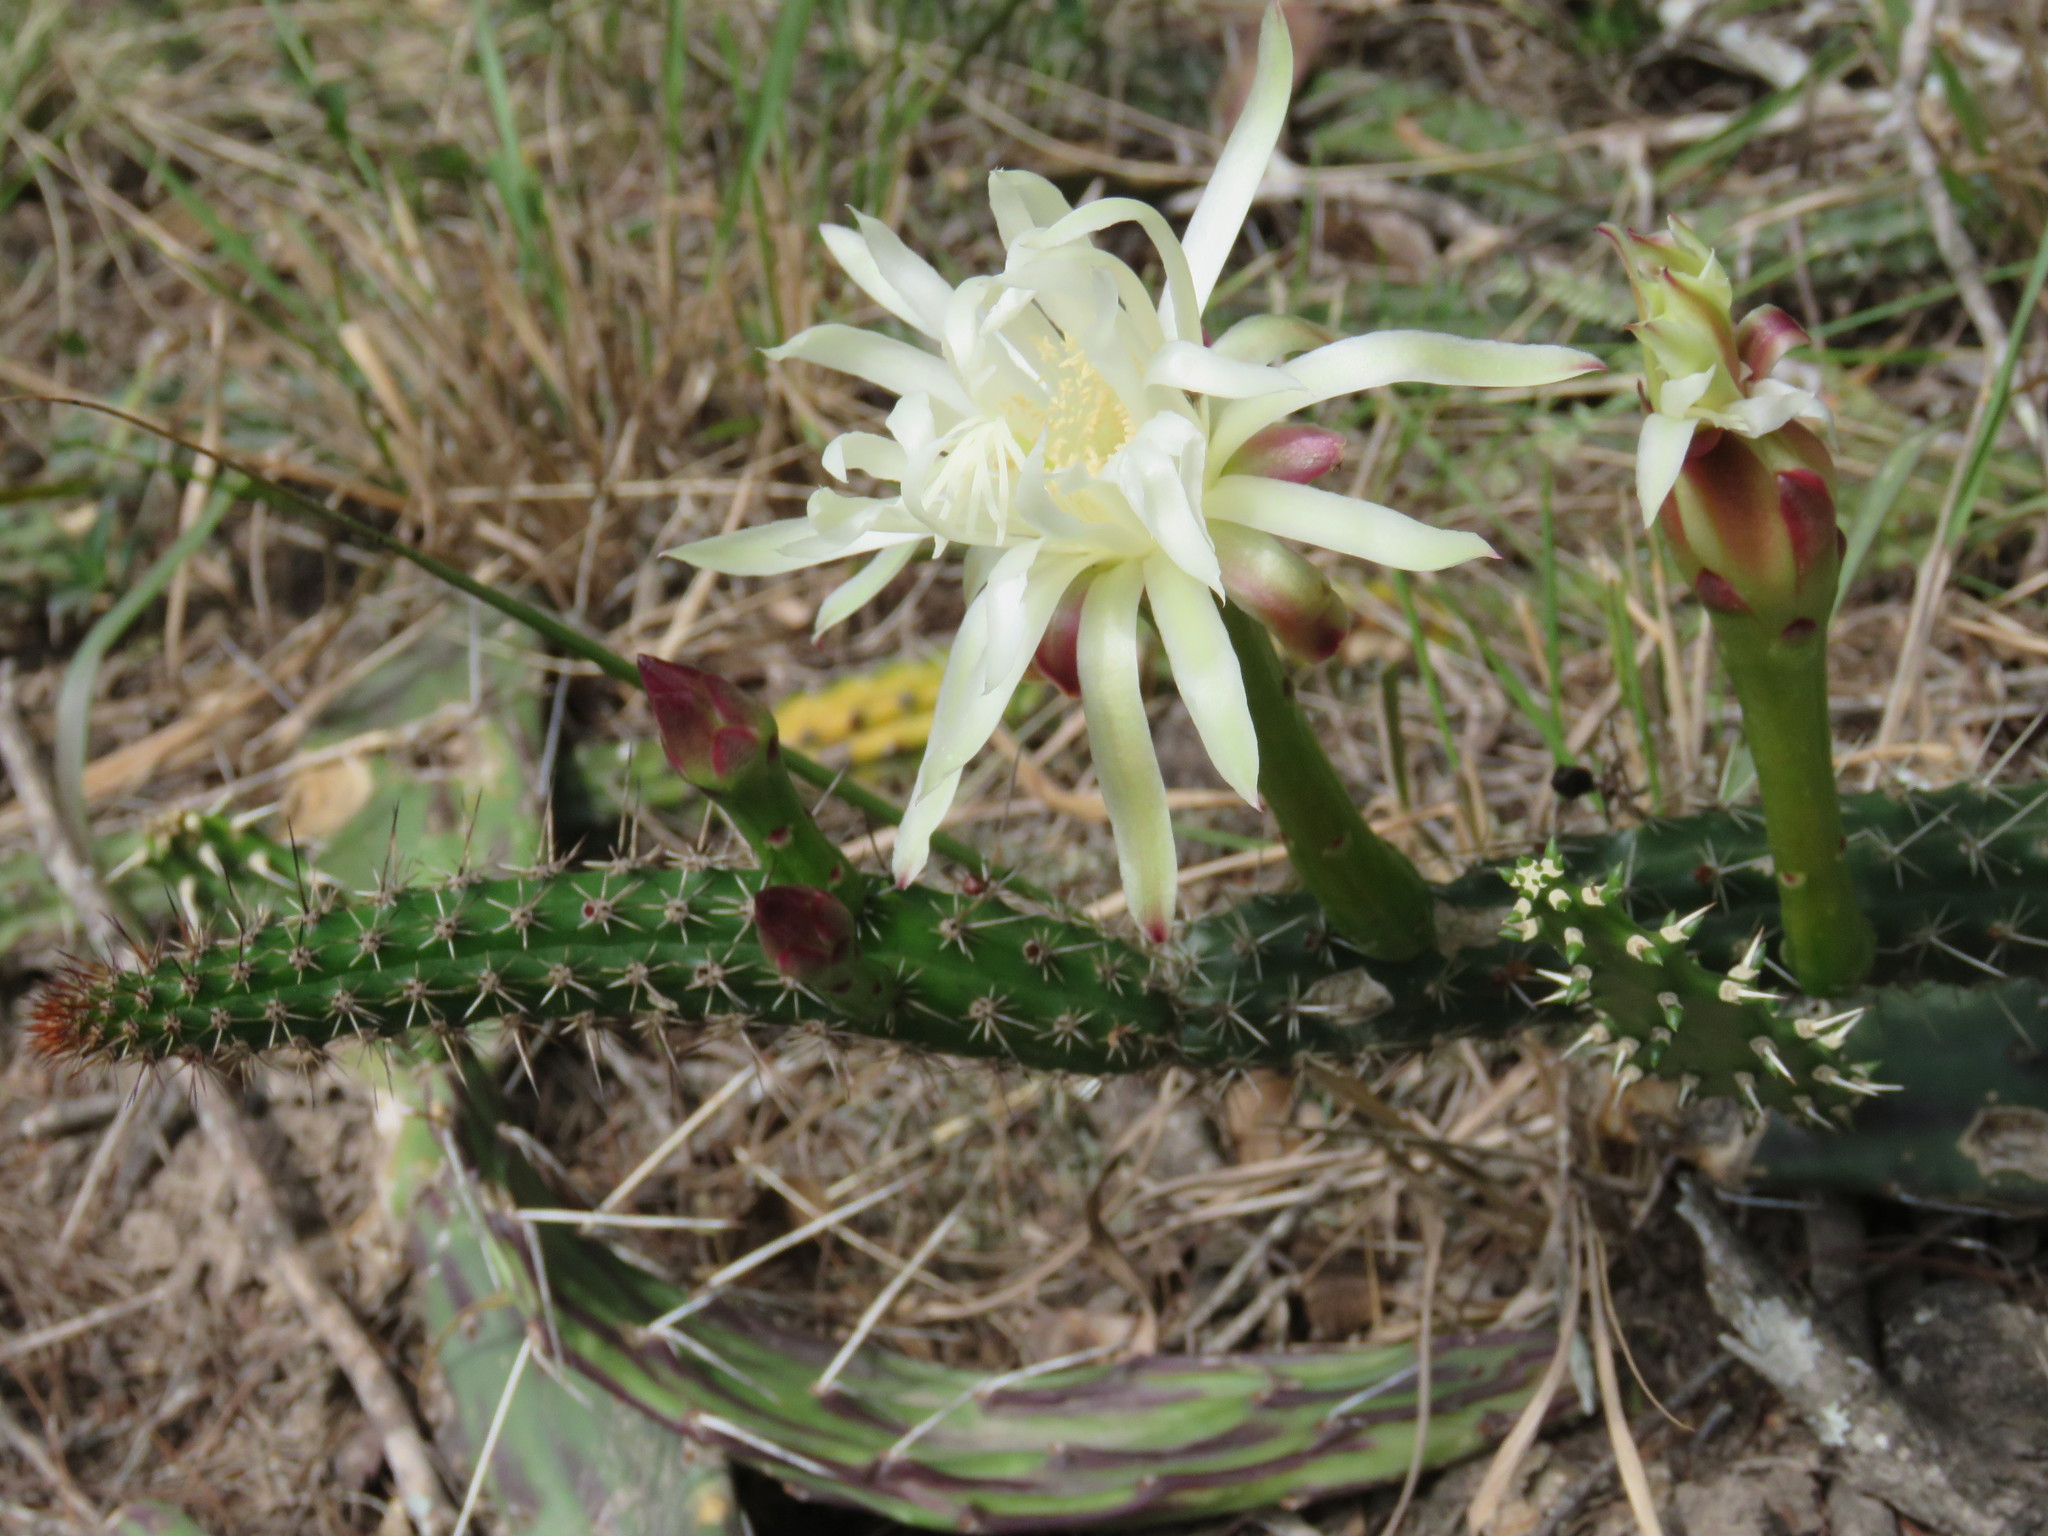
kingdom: Plantae
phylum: Tracheophyta
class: Magnoliopsida
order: Caryophyllales
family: Cactaceae
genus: Praecereus
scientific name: Praecereus euchlorus
